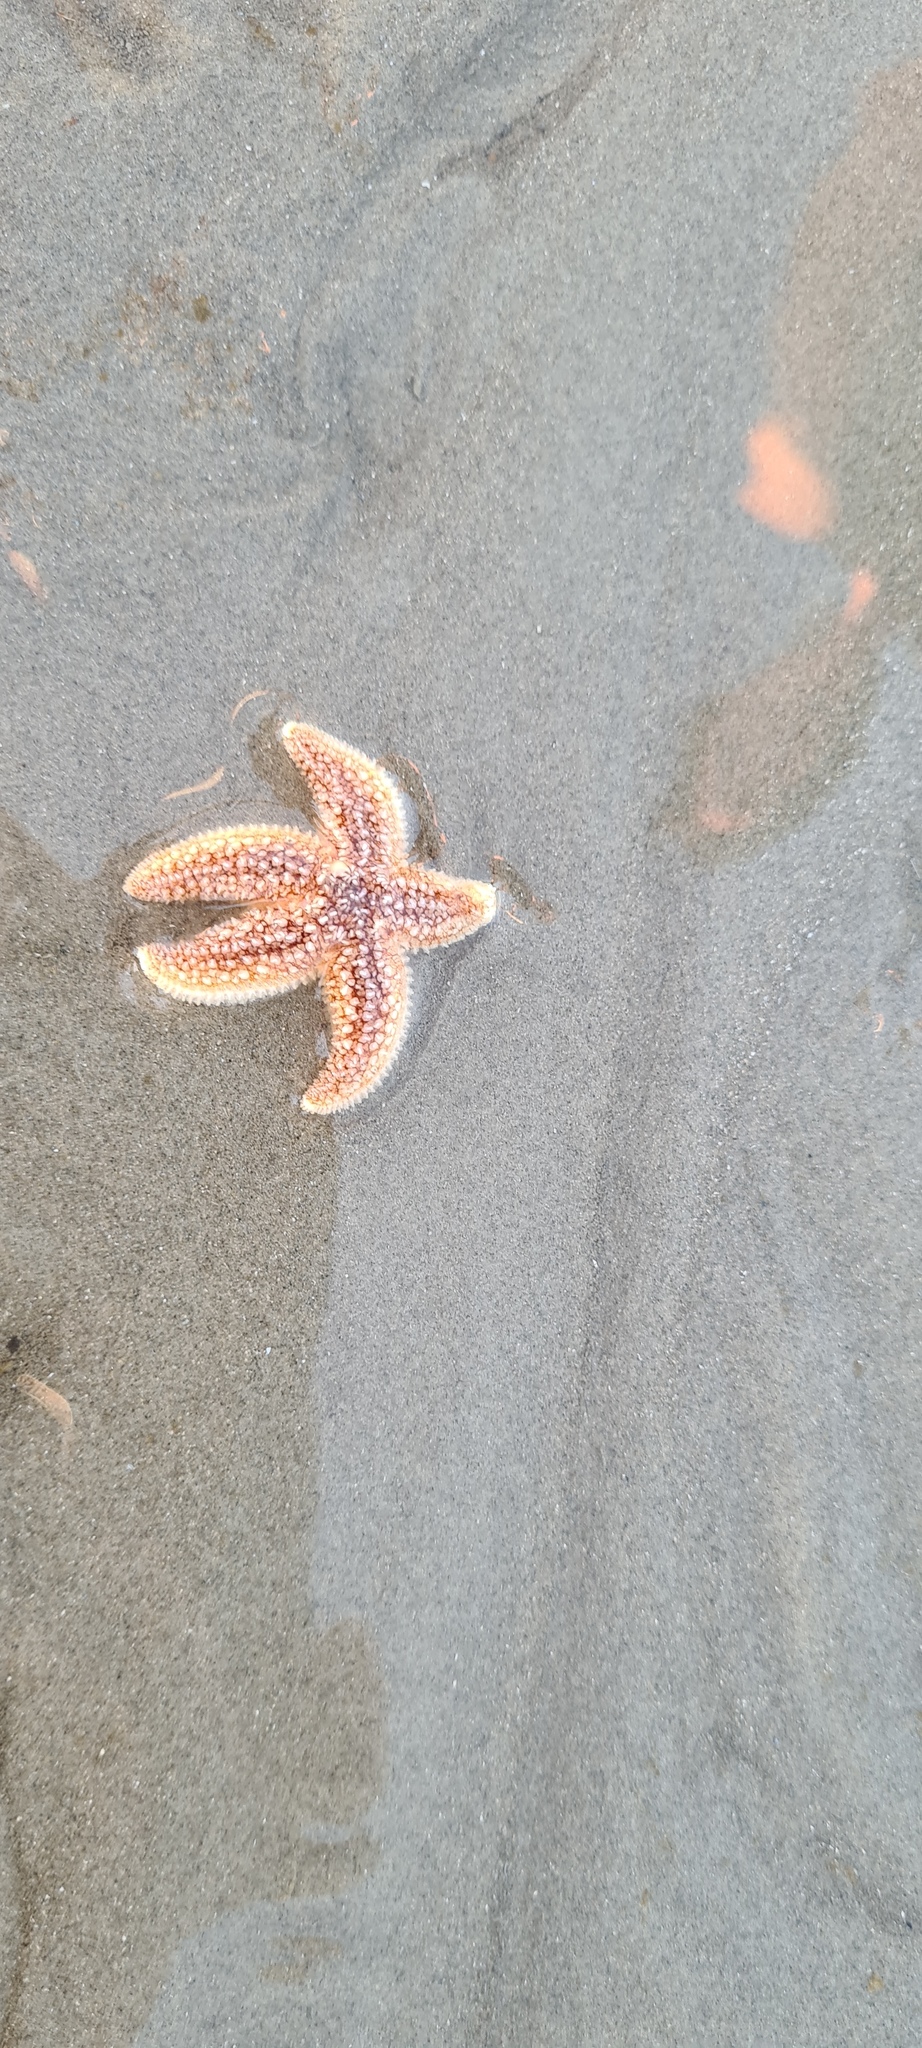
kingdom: Animalia
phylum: Echinodermata
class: Asteroidea
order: Forcipulatida
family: Asteriidae
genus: Asterias
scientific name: Asterias rubens
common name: Common starfish
